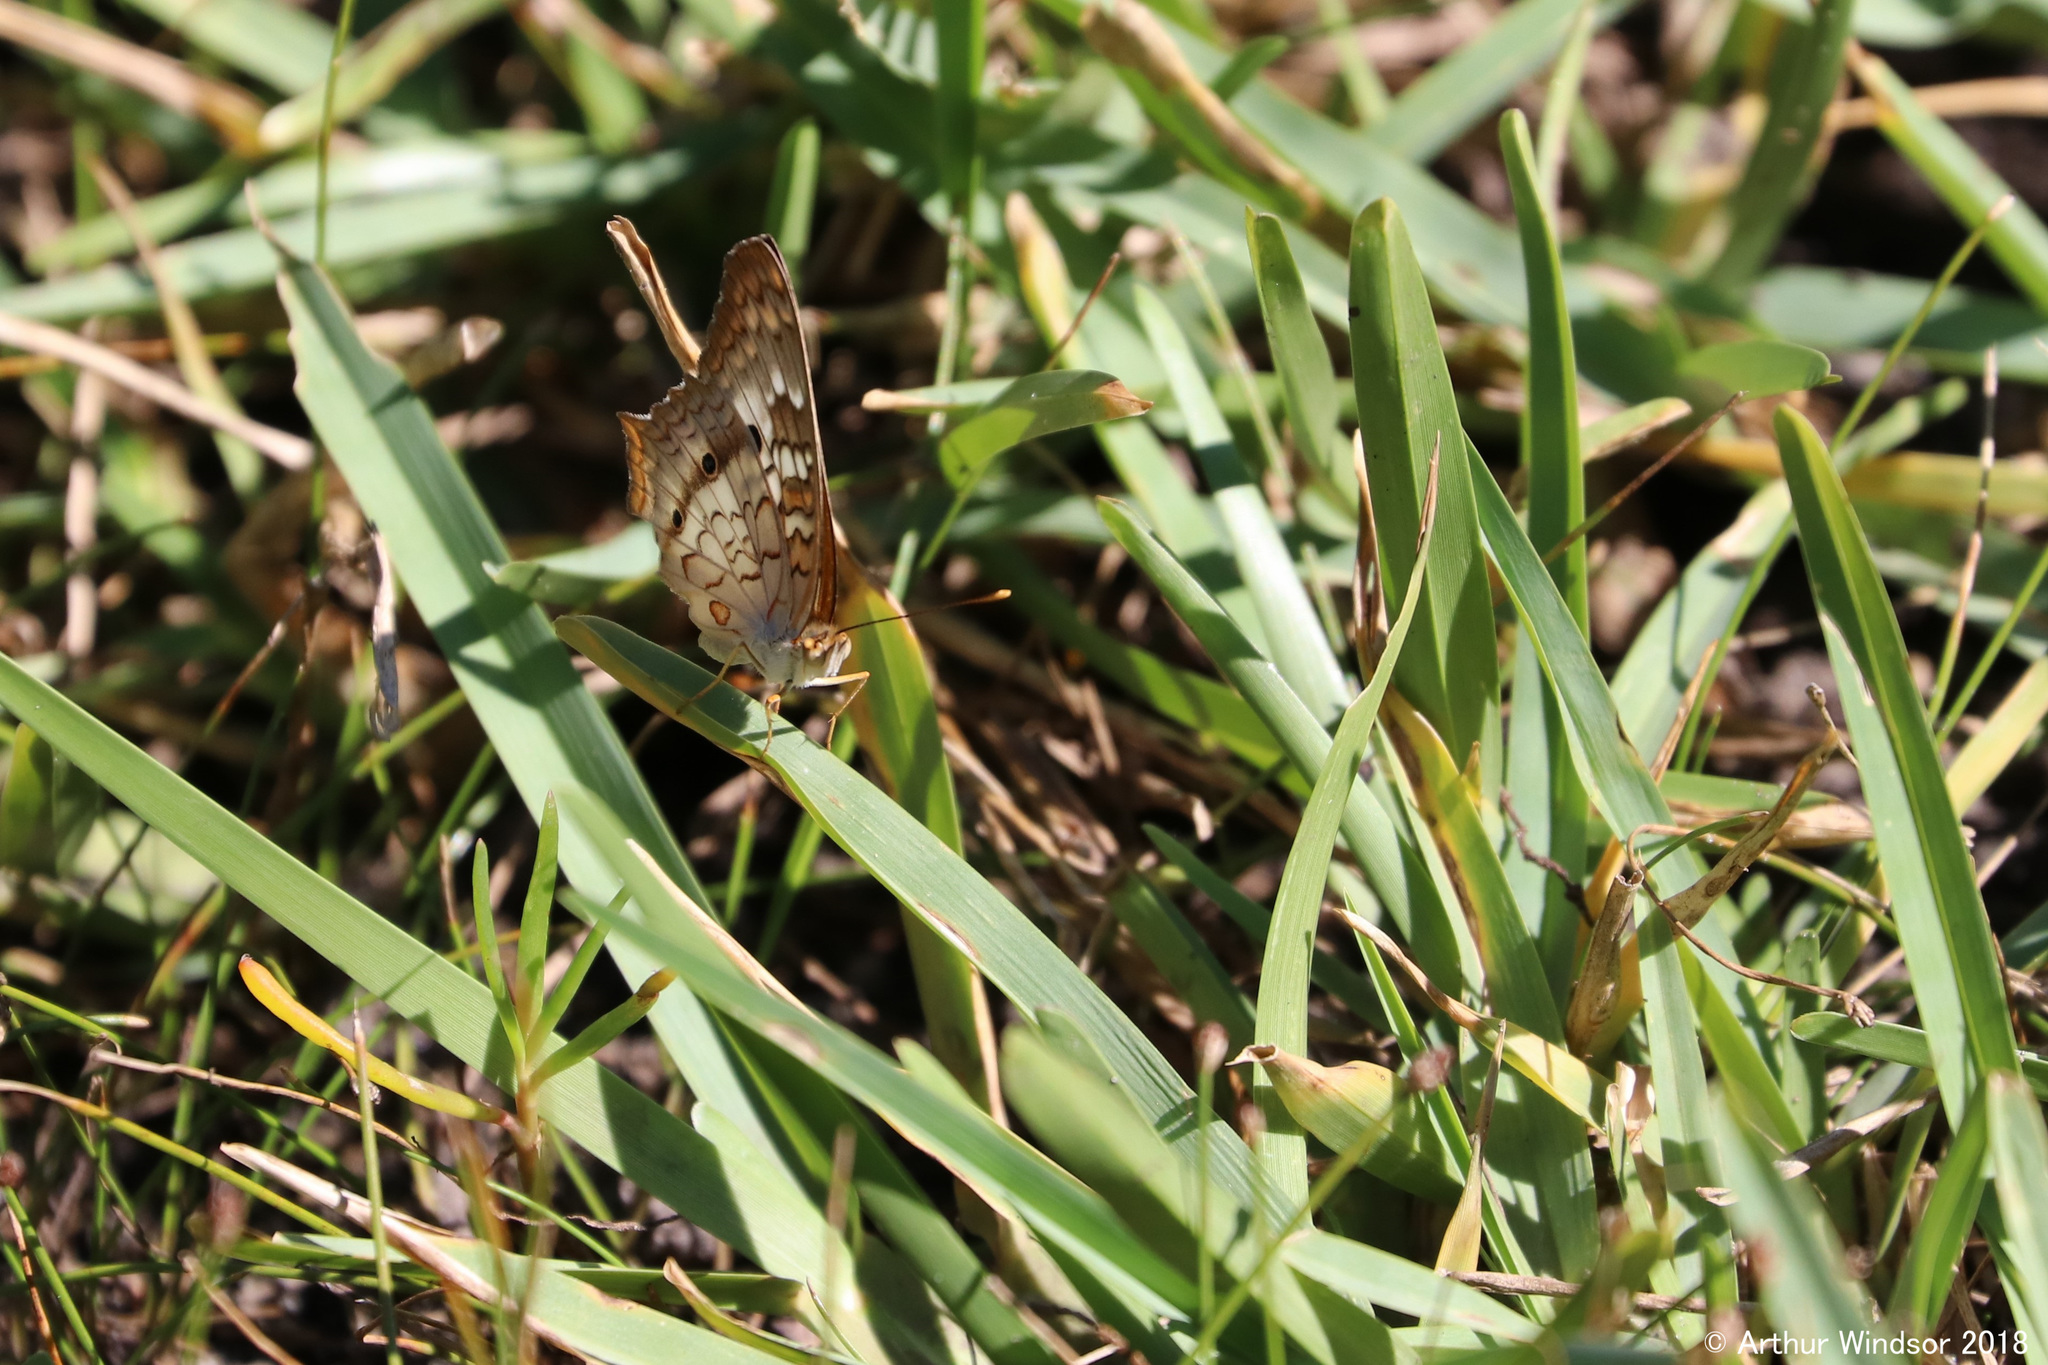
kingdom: Animalia
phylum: Arthropoda
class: Insecta
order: Lepidoptera
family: Nymphalidae
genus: Anartia
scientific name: Anartia jatrophae
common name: White peacock
